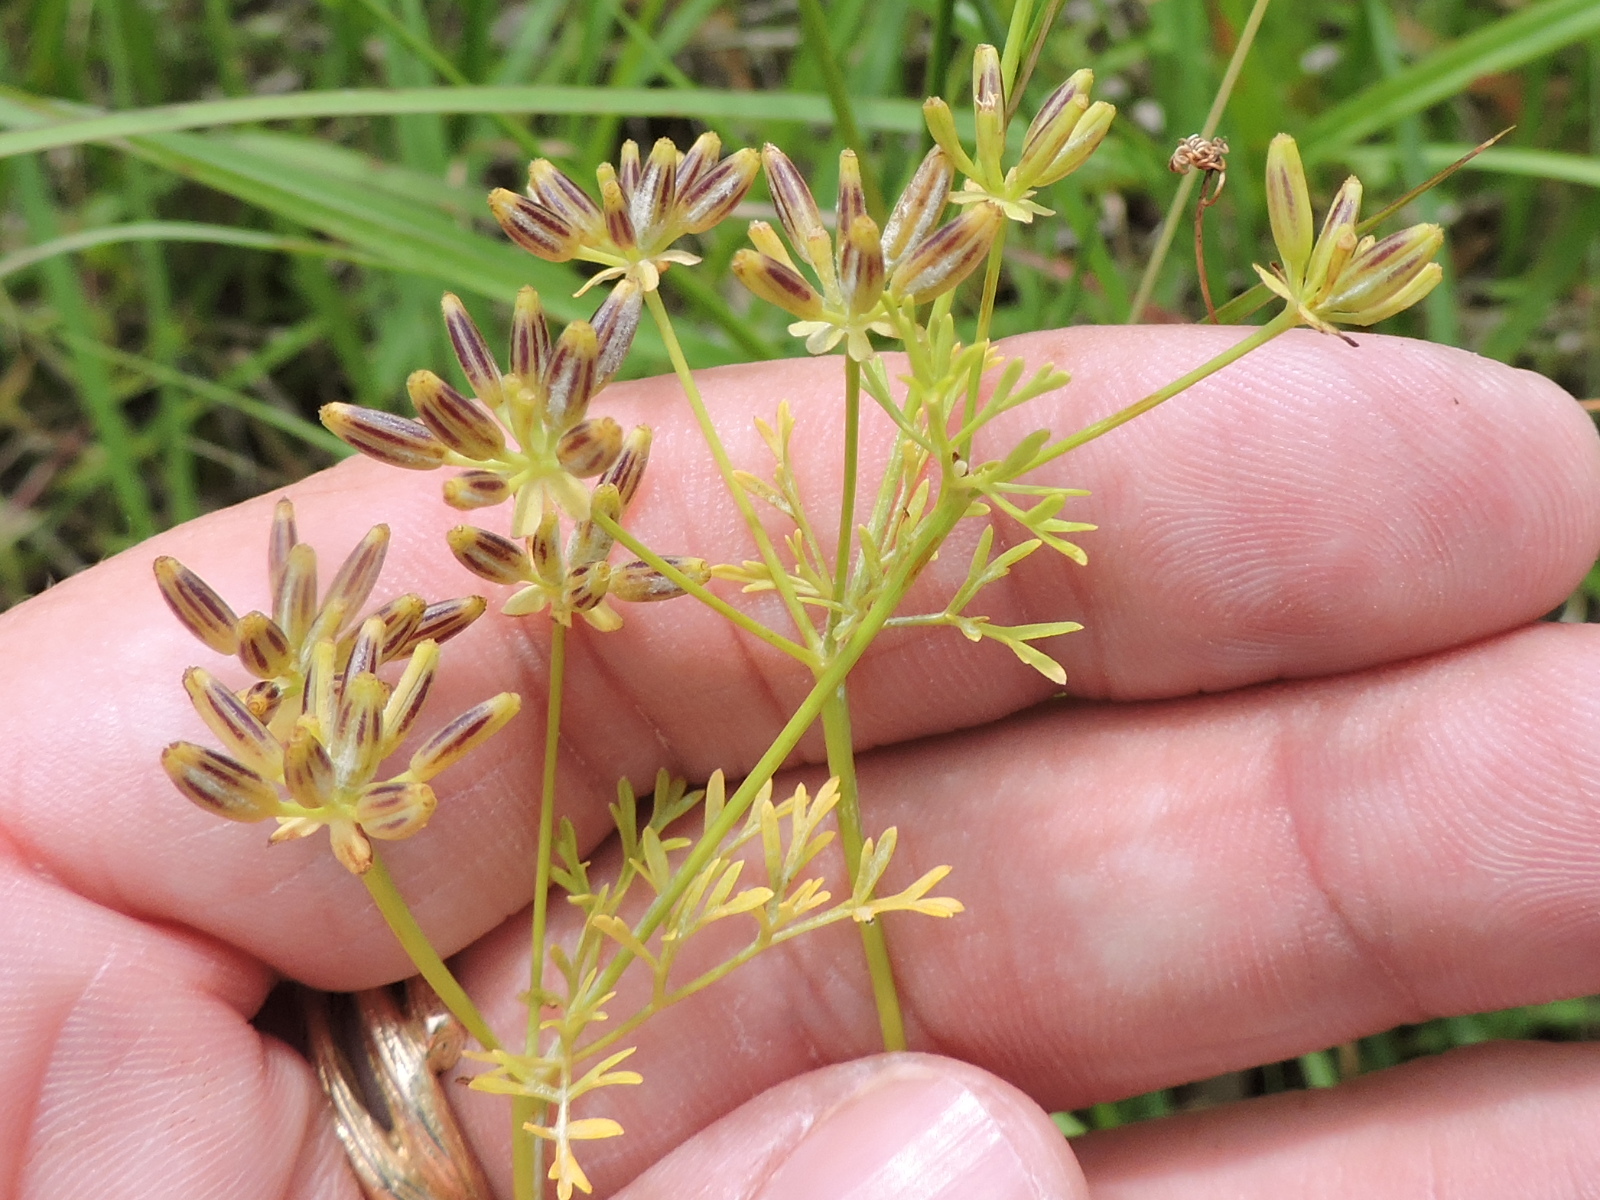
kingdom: Plantae
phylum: Tracheophyta
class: Magnoliopsida
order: Apiales
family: Apiaceae
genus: Chaerophyllum
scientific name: Chaerophyllum tainturieri
